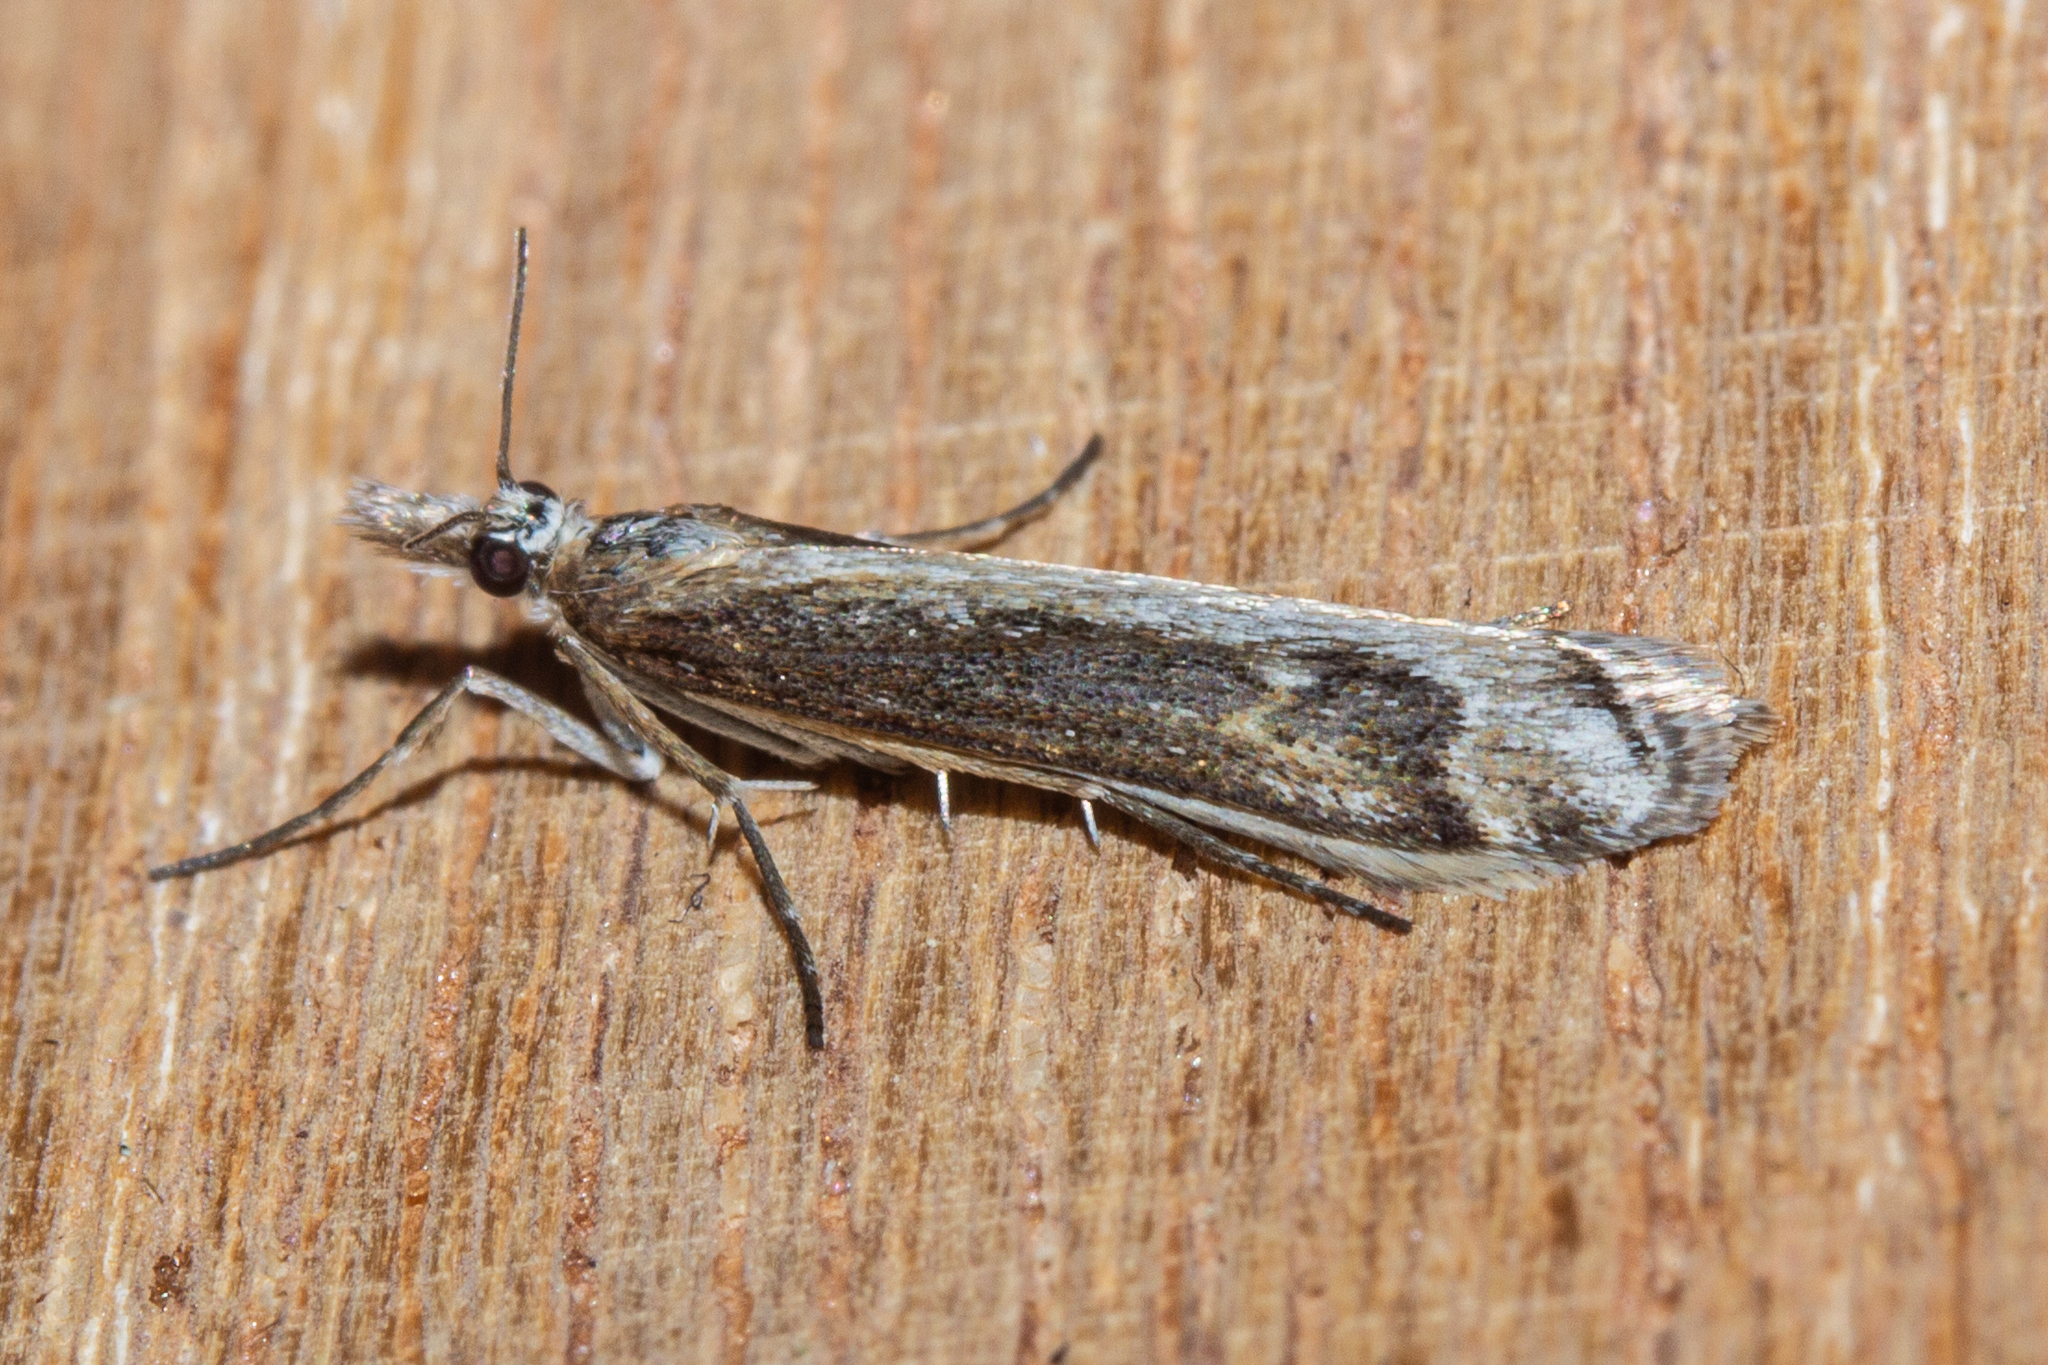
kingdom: Animalia
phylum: Arthropoda
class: Insecta
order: Lepidoptera
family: Crambidae
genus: Scoparia
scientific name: Scoparia exilis
